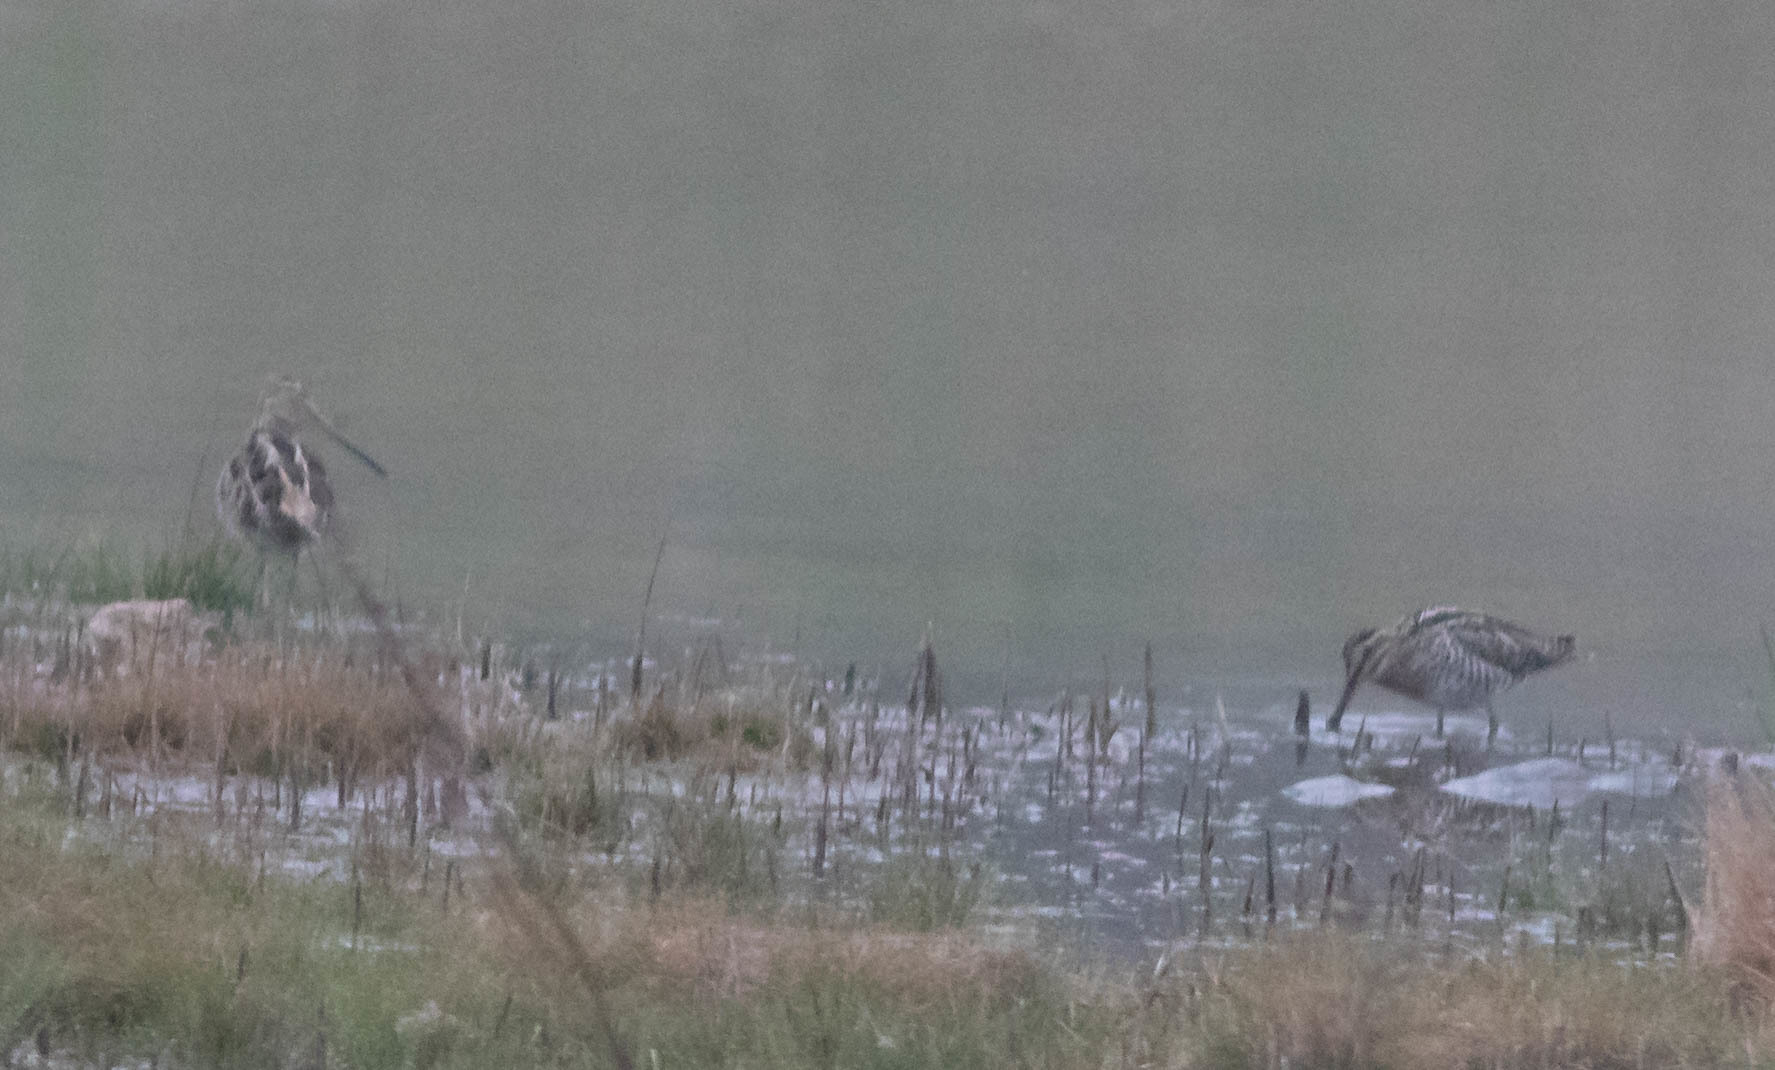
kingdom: Animalia
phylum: Chordata
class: Aves
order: Charadriiformes
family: Scolopacidae
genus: Gallinago
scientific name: Gallinago delicata
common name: Wilson's snipe
